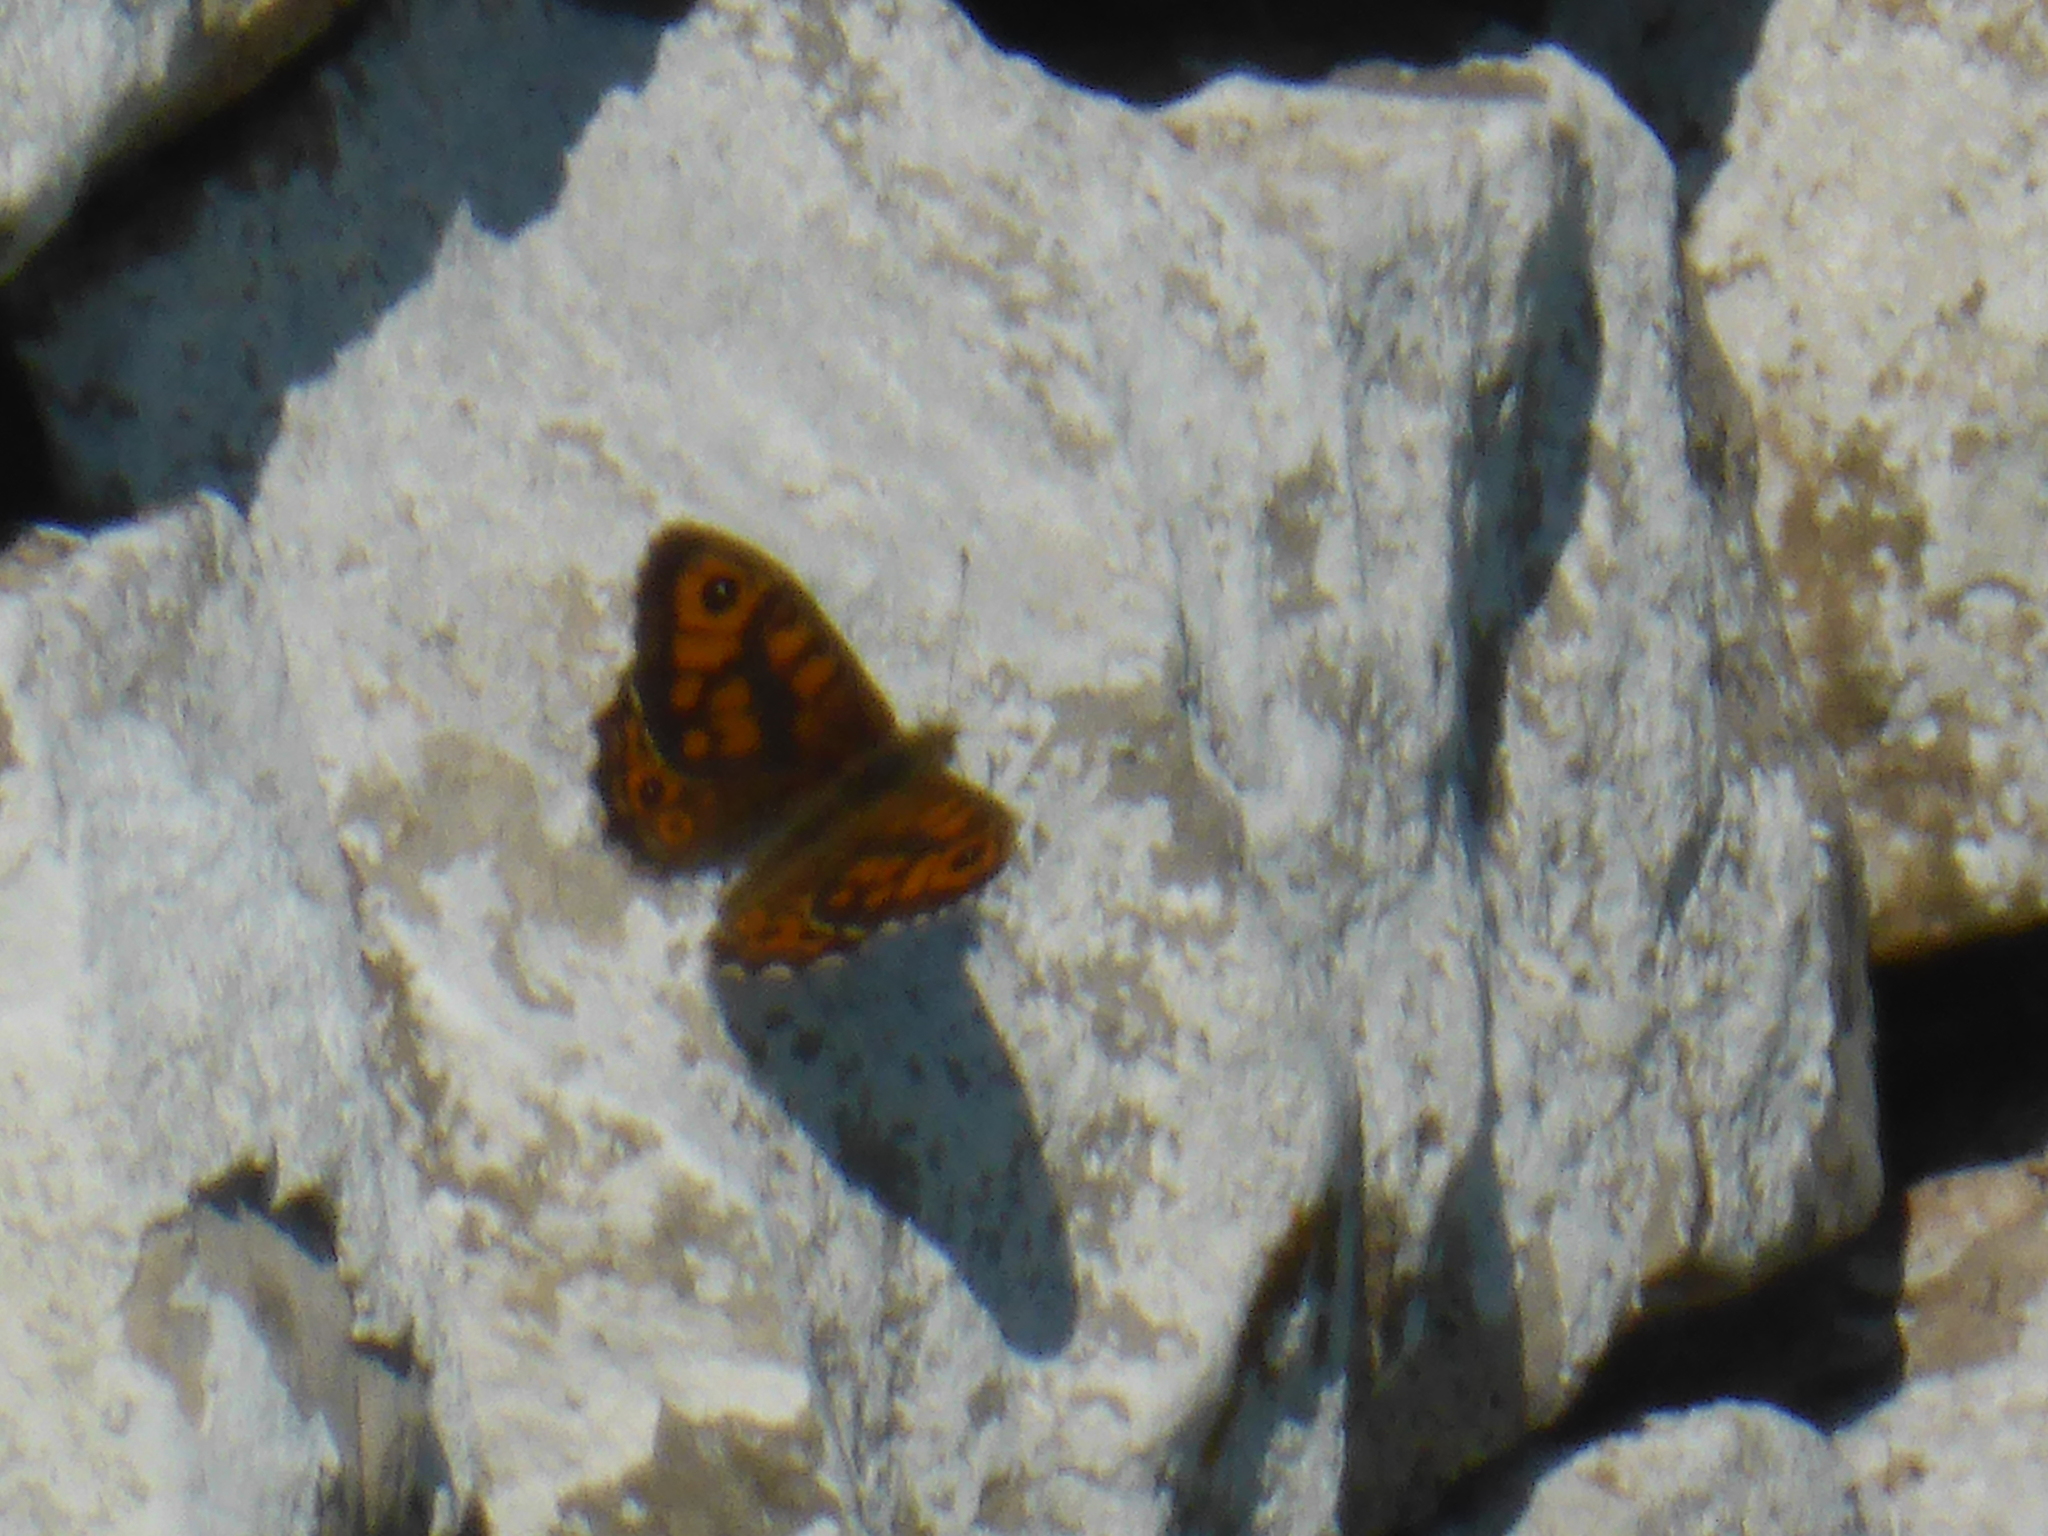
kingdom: Animalia
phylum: Arthropoda
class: Insecta
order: Lepidoptera
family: Nymphalidae
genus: Pararge
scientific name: Pararge Lasiommata megera
